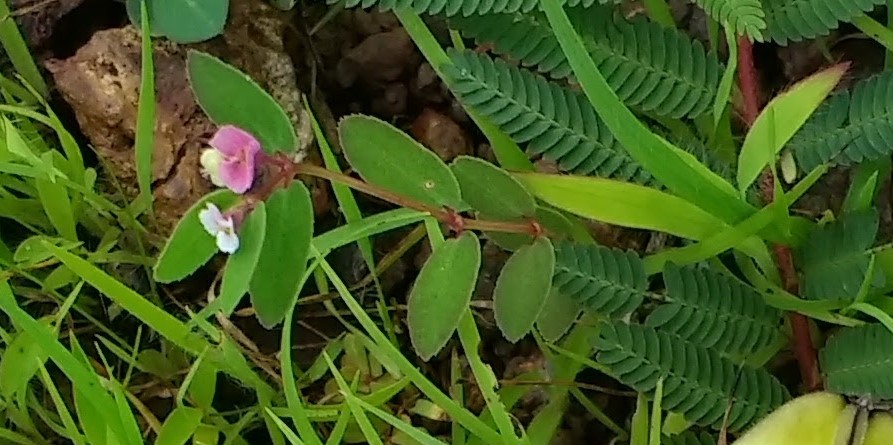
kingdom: Plantae
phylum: Tracheophyta
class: Magnoliopsida
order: Malpighiales
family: Euphorbiaceae
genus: Euphorbia
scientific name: Euphorbia concanensis
